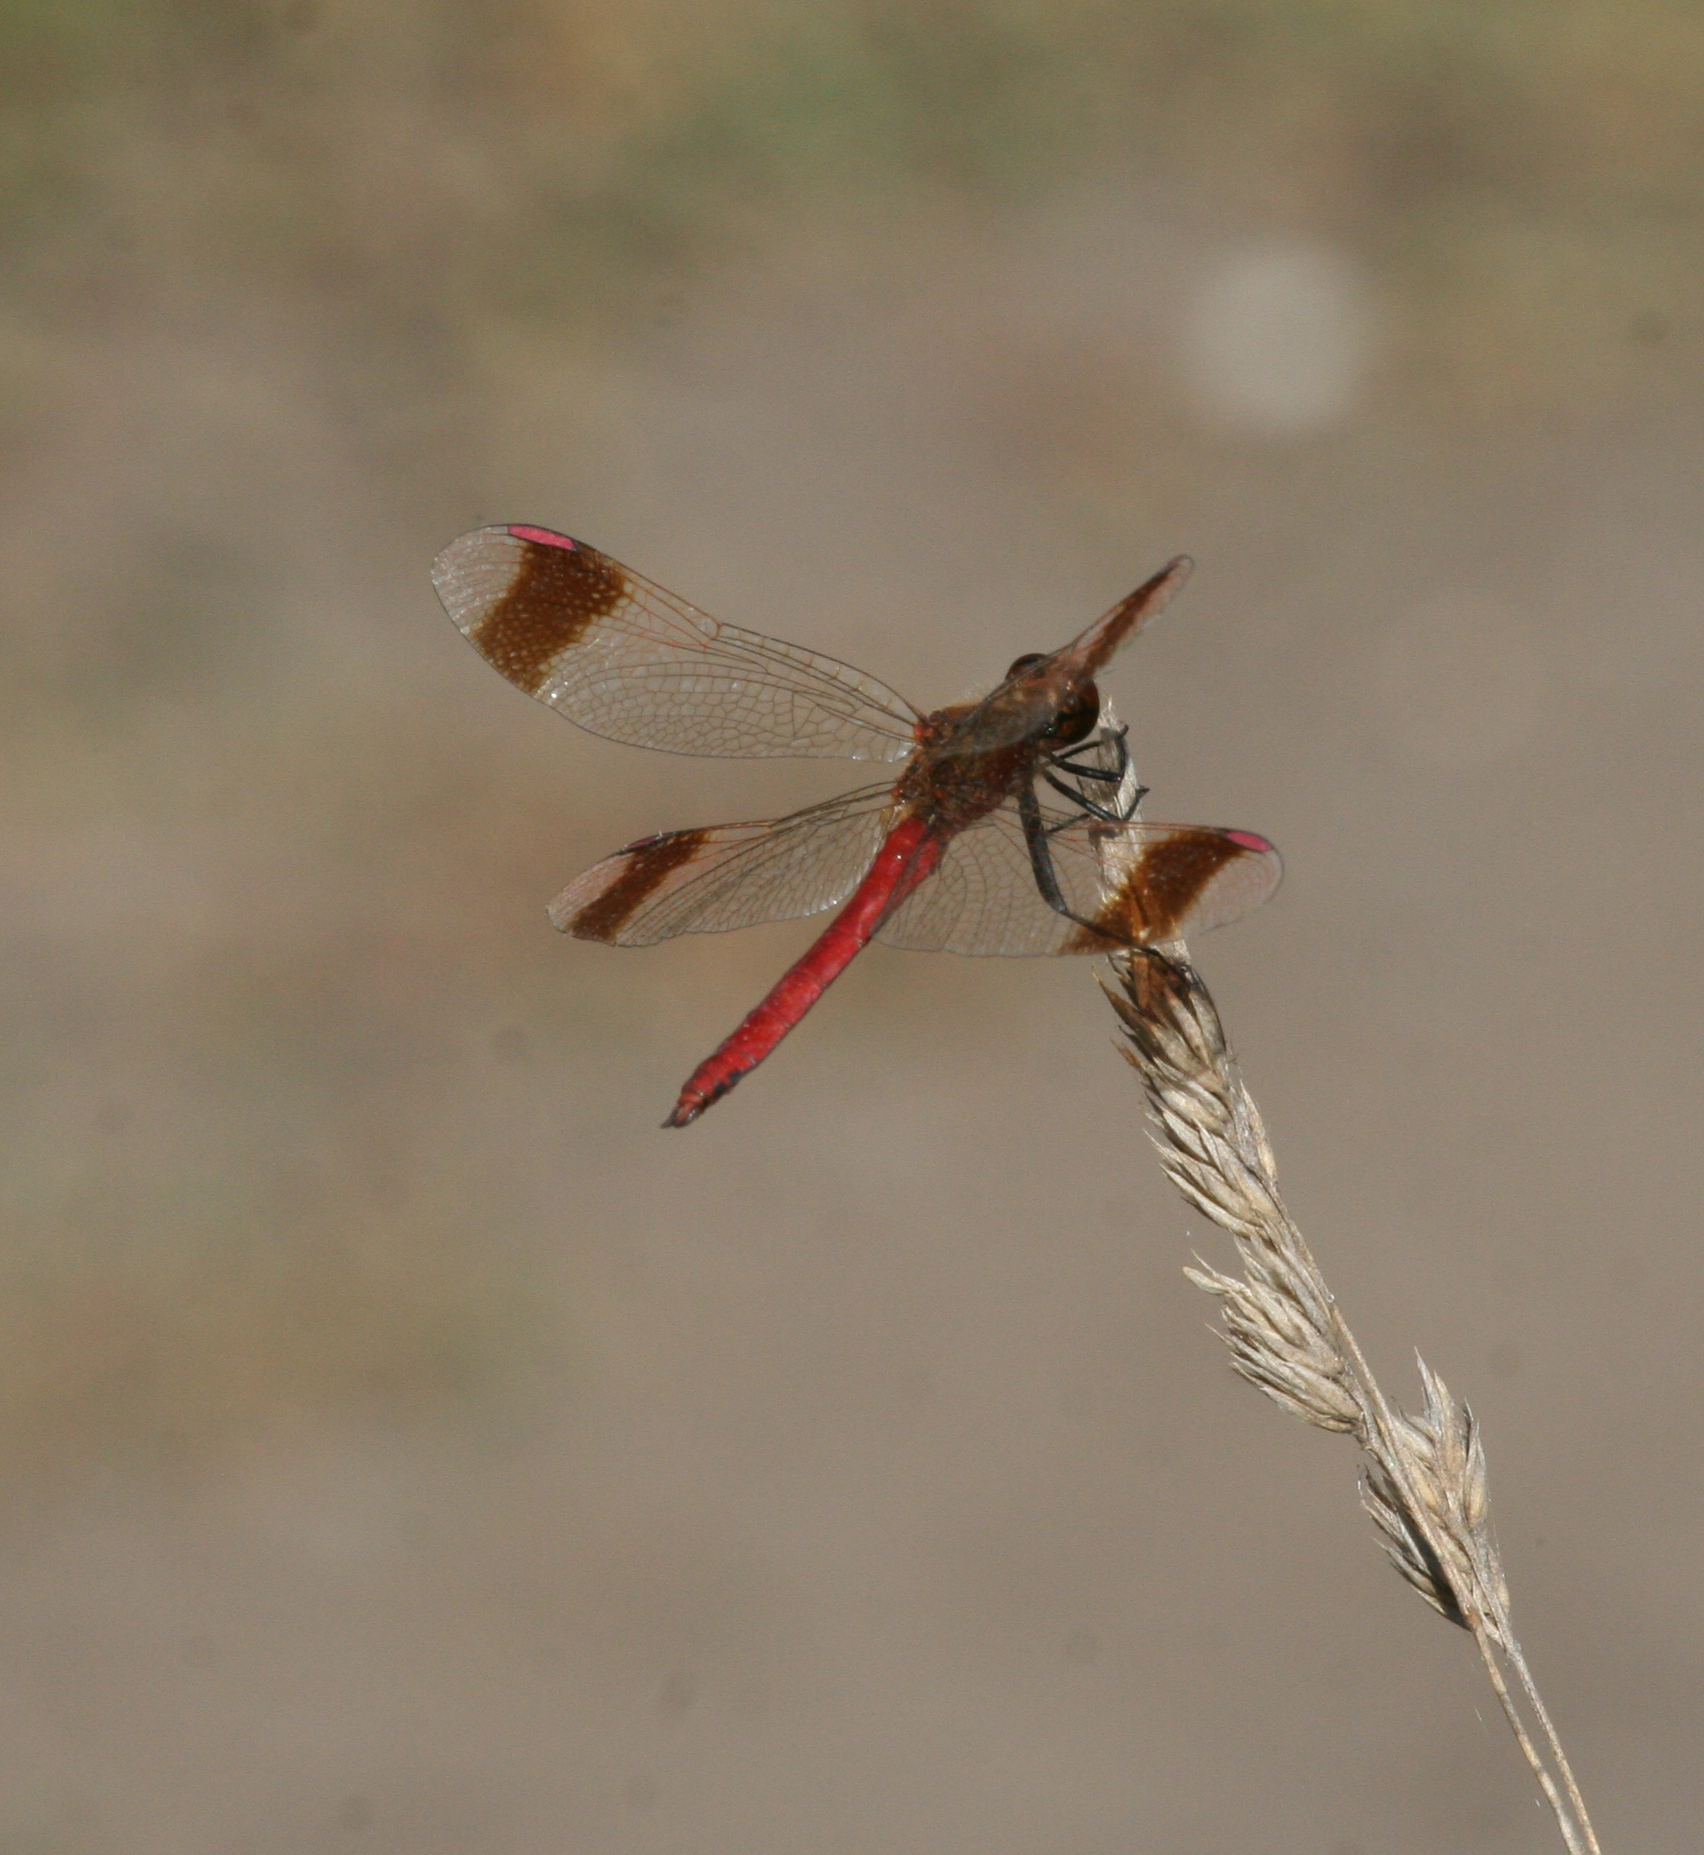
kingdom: Animalia
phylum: Arthropoda
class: Insecta
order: Odonata
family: Libellulidae
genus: Sympetrum
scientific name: Sympetrum pedemontanum
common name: Banded darter
